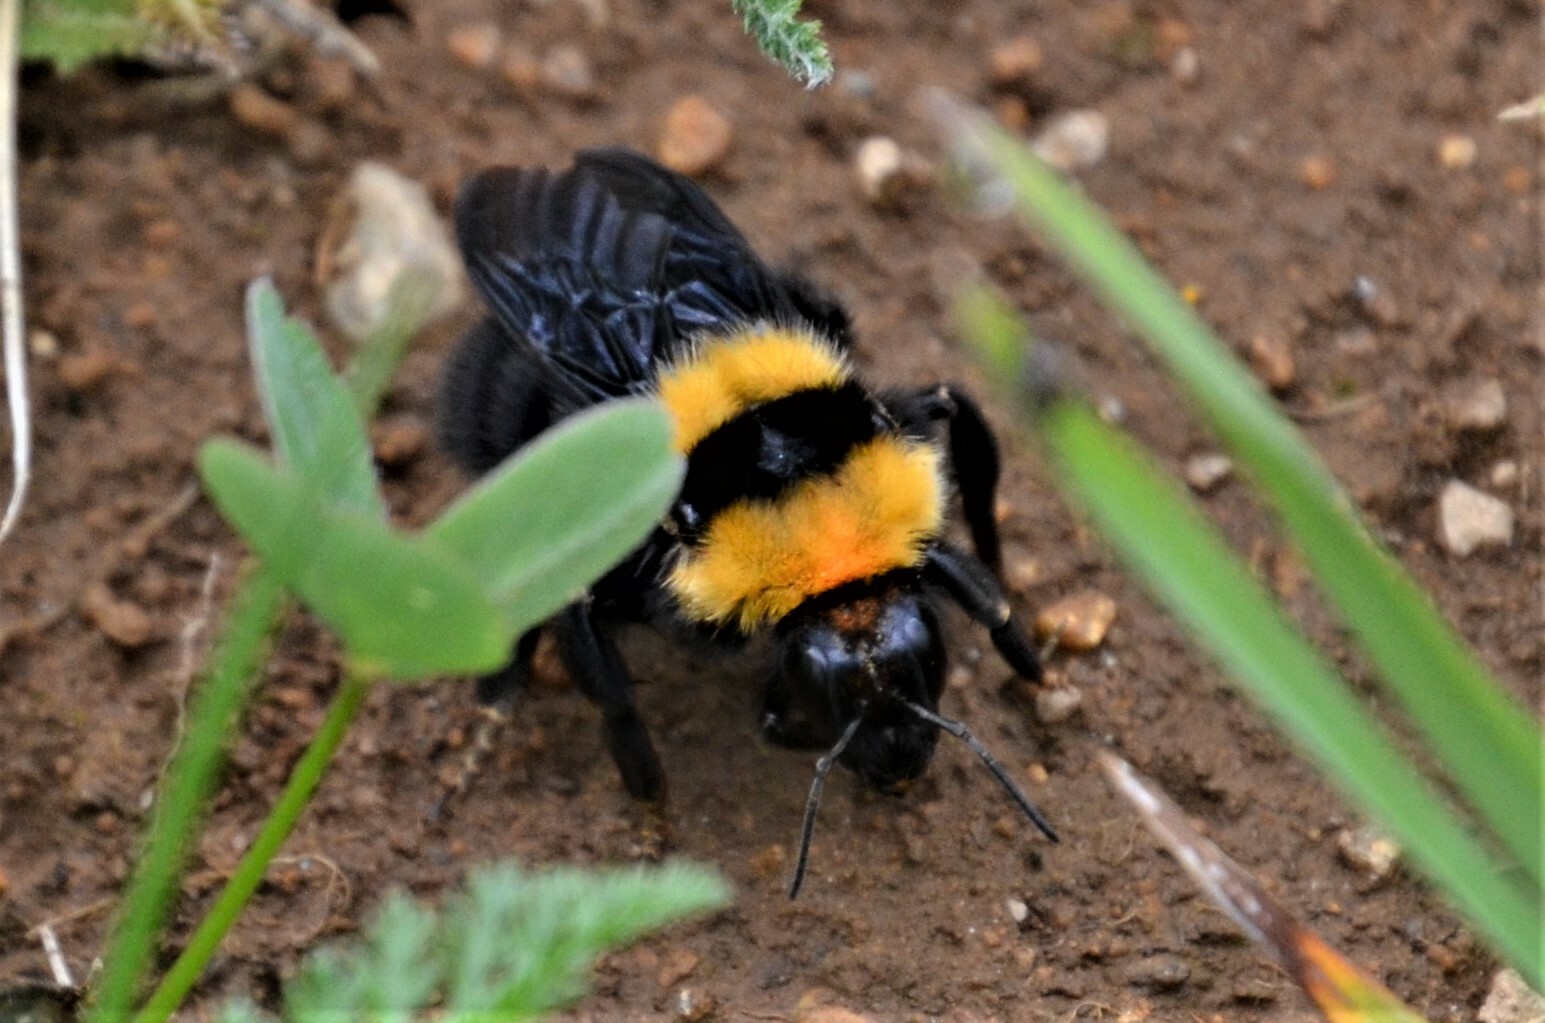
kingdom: Animalia
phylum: Arthropoda
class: Insecta
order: Hymenoptera
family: Apidae
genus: Bombus
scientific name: Bombus argillaceus
